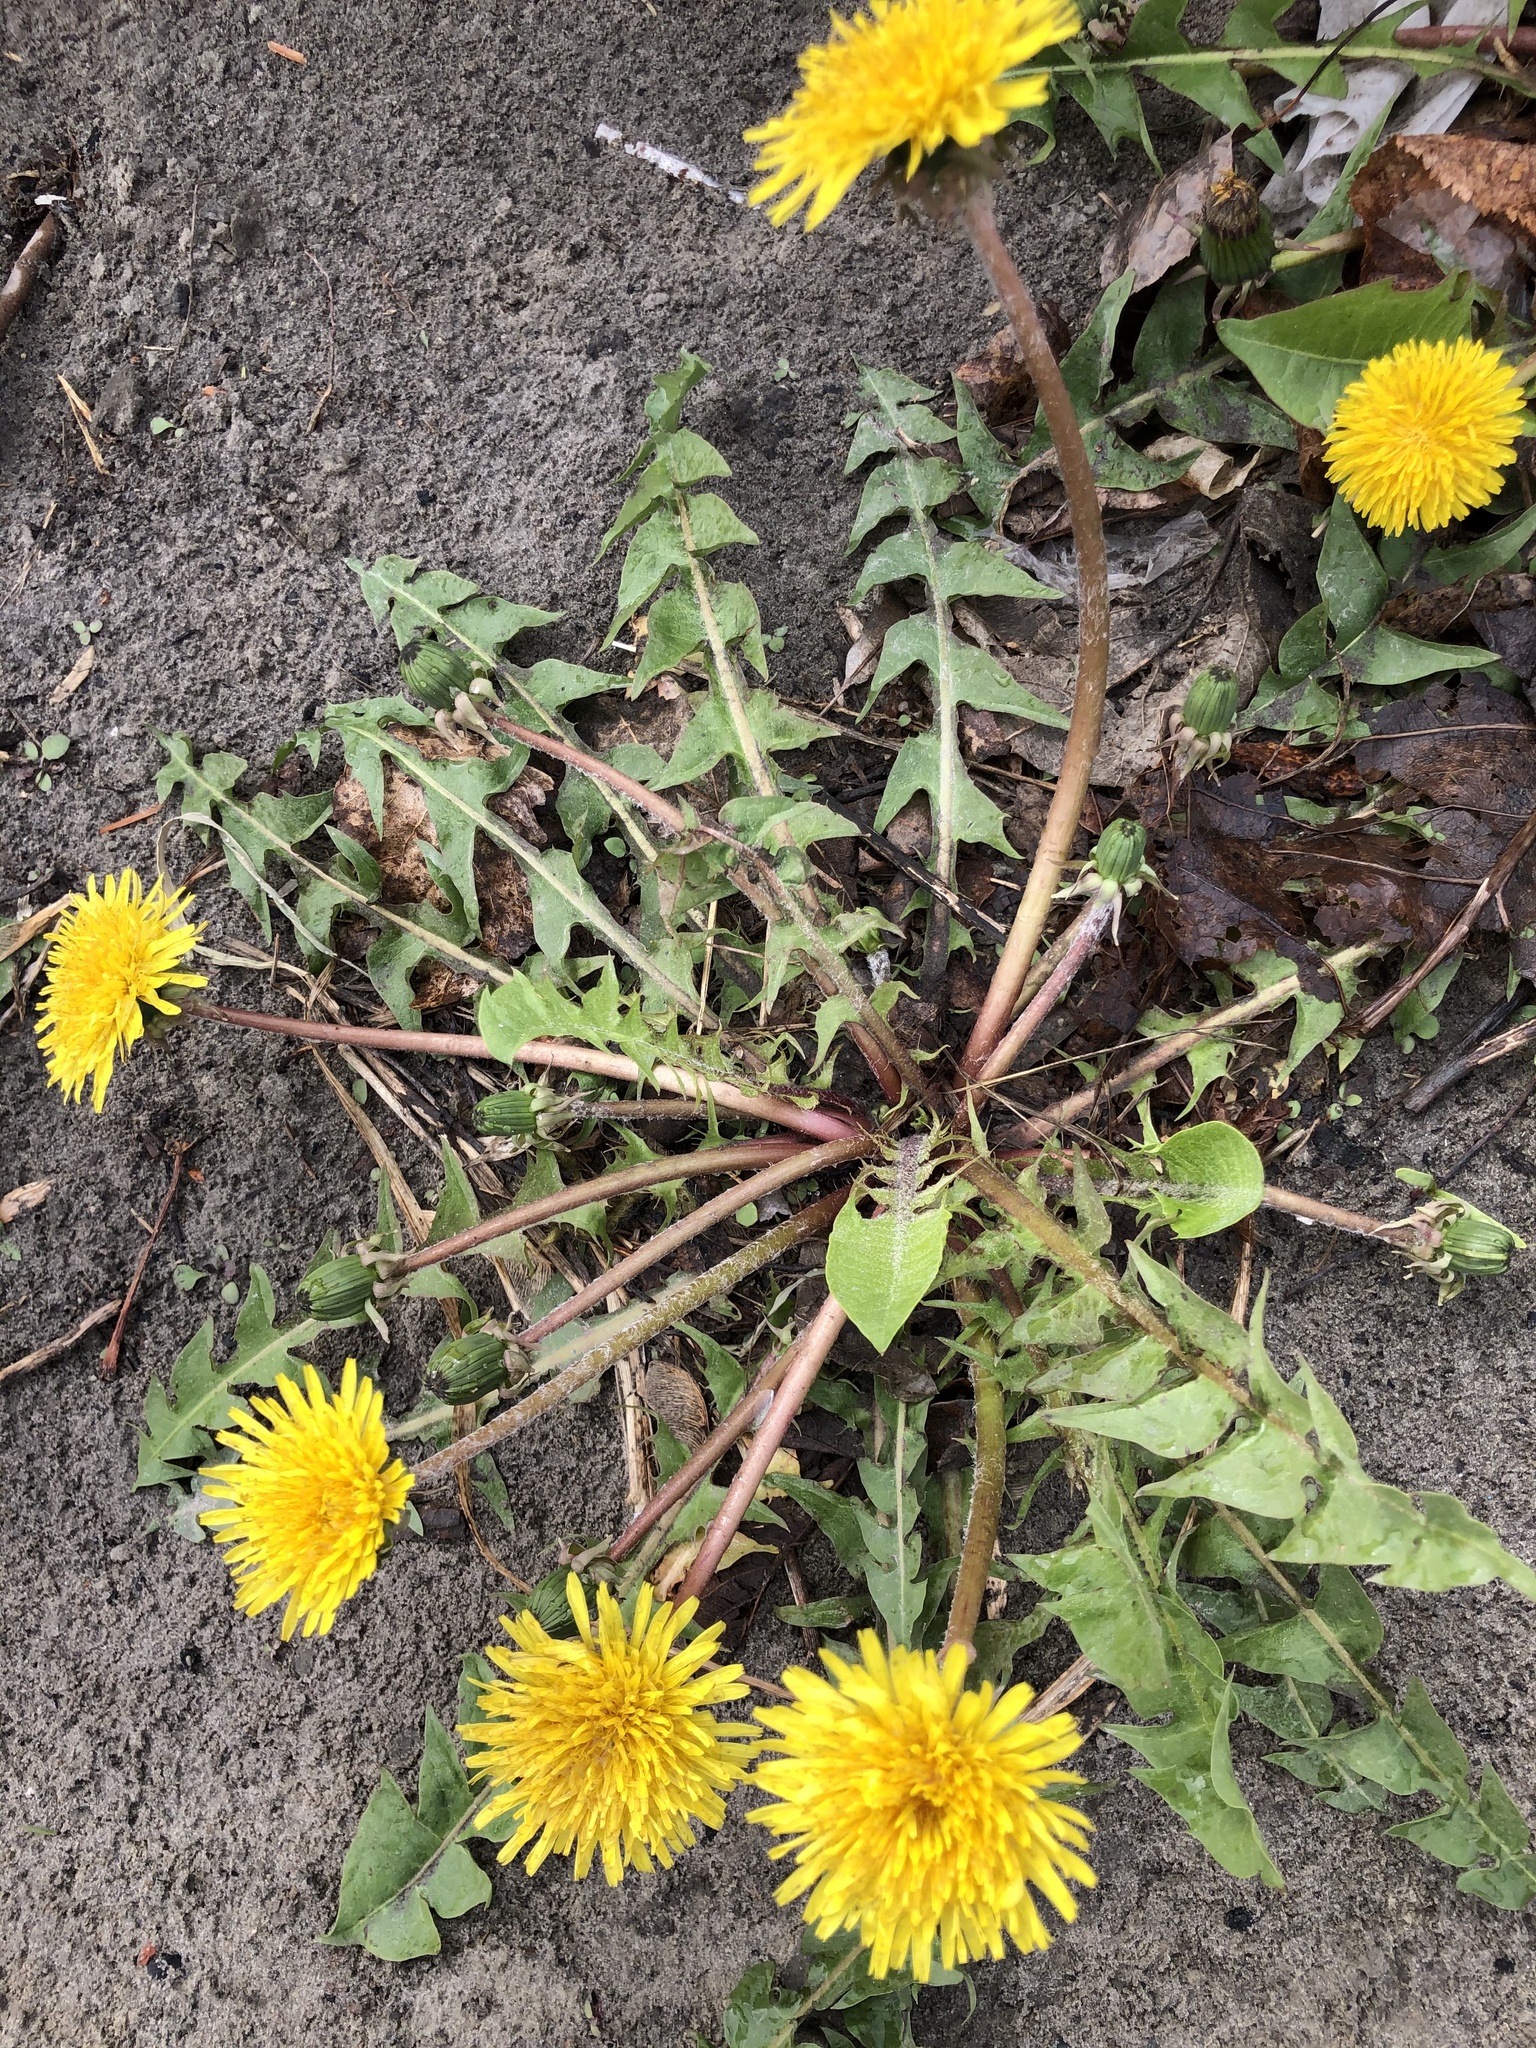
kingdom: Plantae
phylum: Tracheophyta
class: Magnoliopsida
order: Asterales
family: Asteraceae
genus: Taraxacum
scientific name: Taraxacum officinale
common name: Common dandelion
